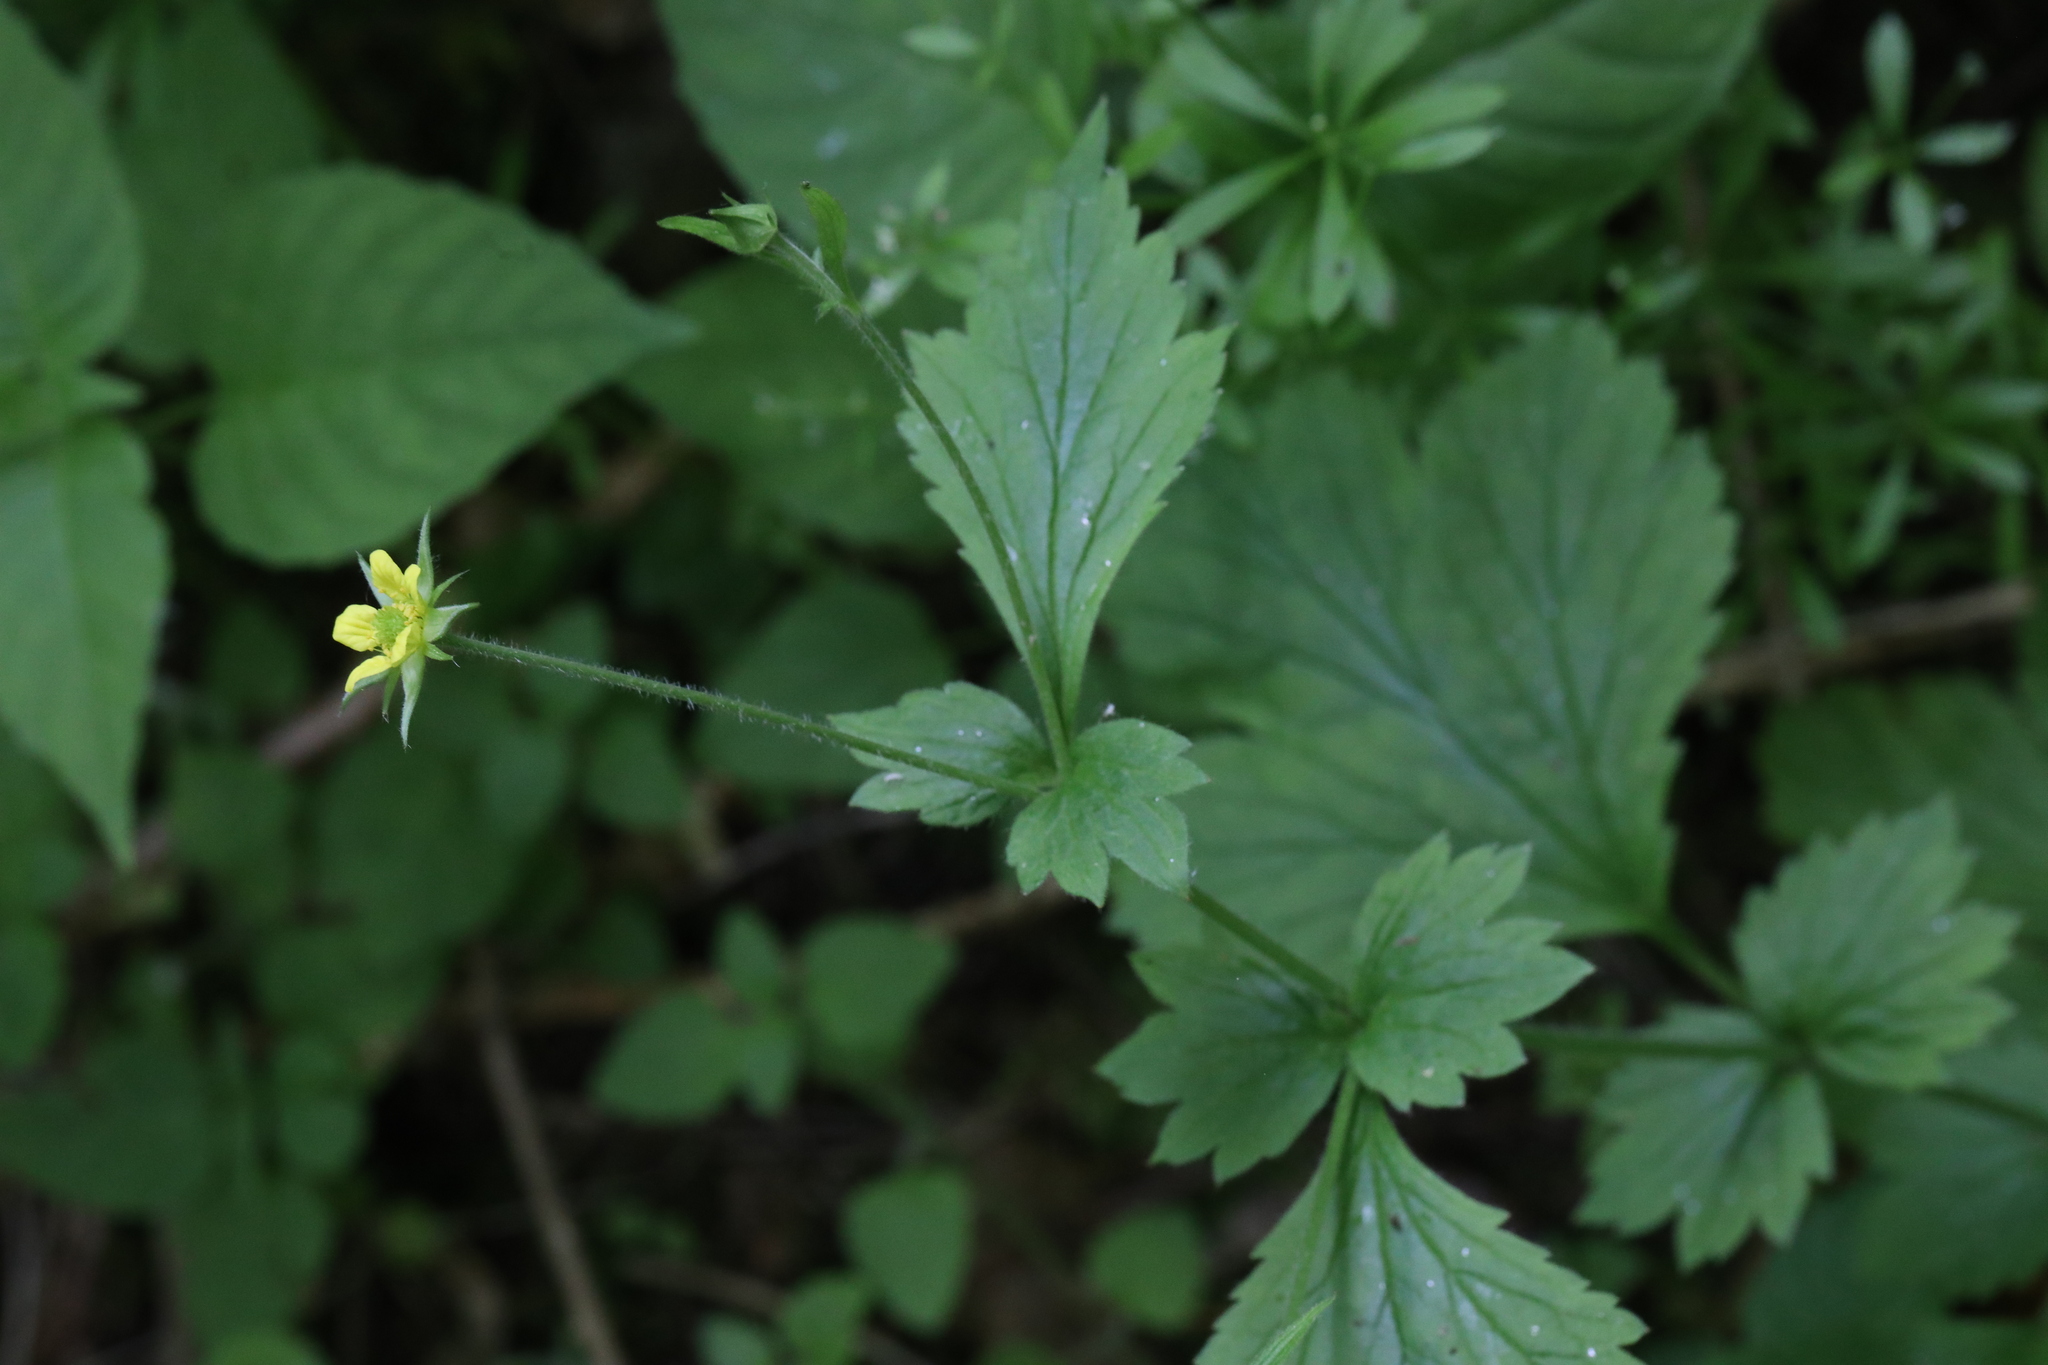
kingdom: Plantae
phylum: Tracheophyta
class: Magnoliopsida
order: Rosales
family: Rosaceae
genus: Geum
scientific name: Geum urbanum
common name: Wood avens
